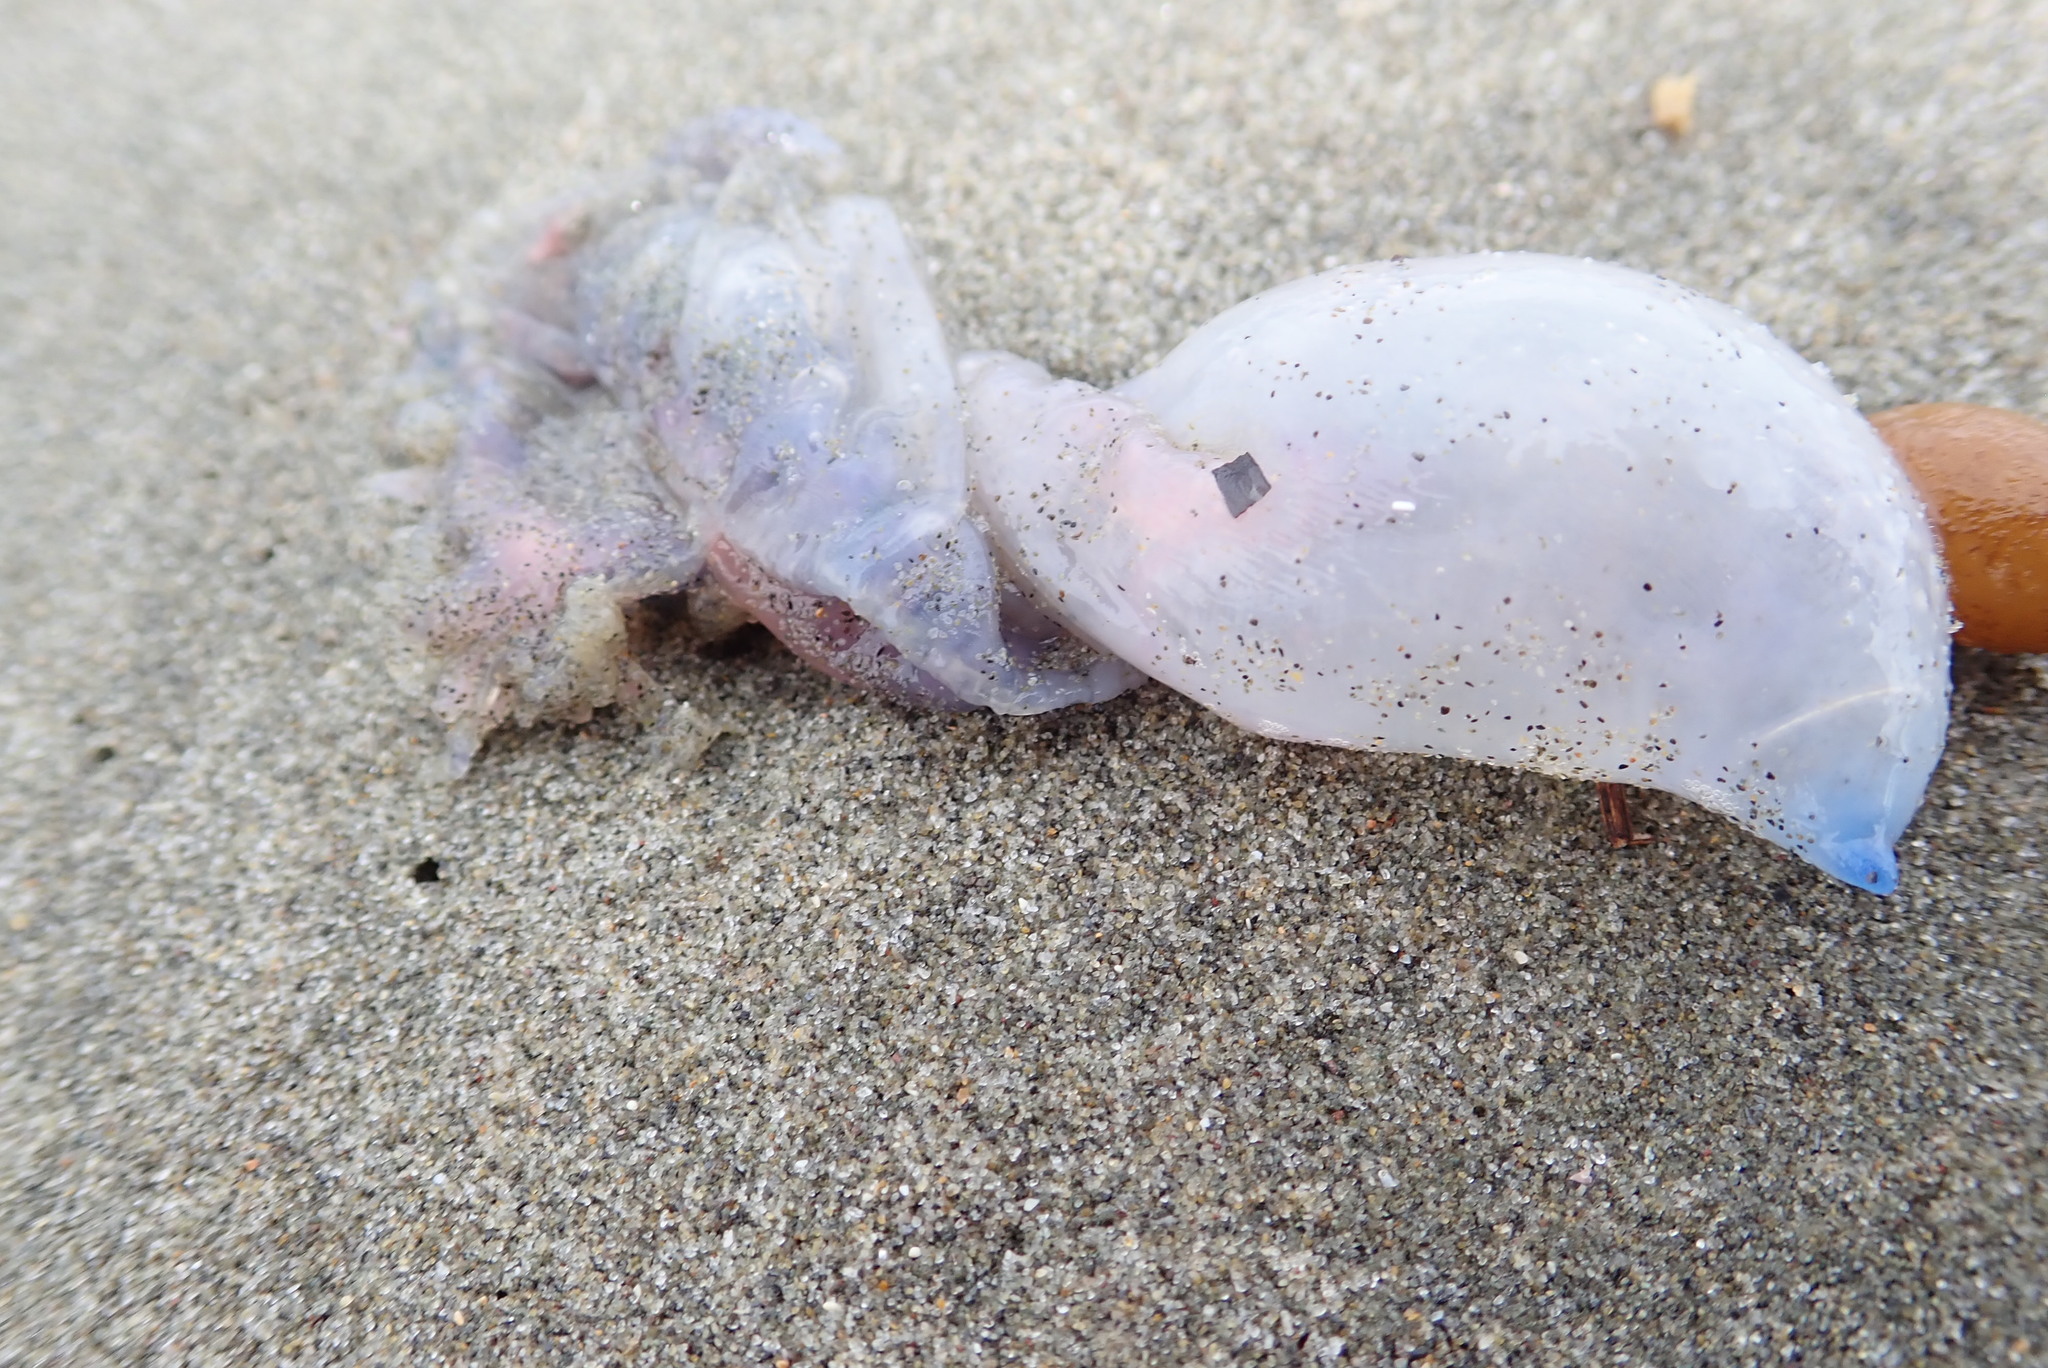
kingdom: Animalia
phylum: Cnidaria
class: Hydrozoa
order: Siphonophorae
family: Physaliidae
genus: Physalia
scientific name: Physalia physalis
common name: Portuguese man-of-war
